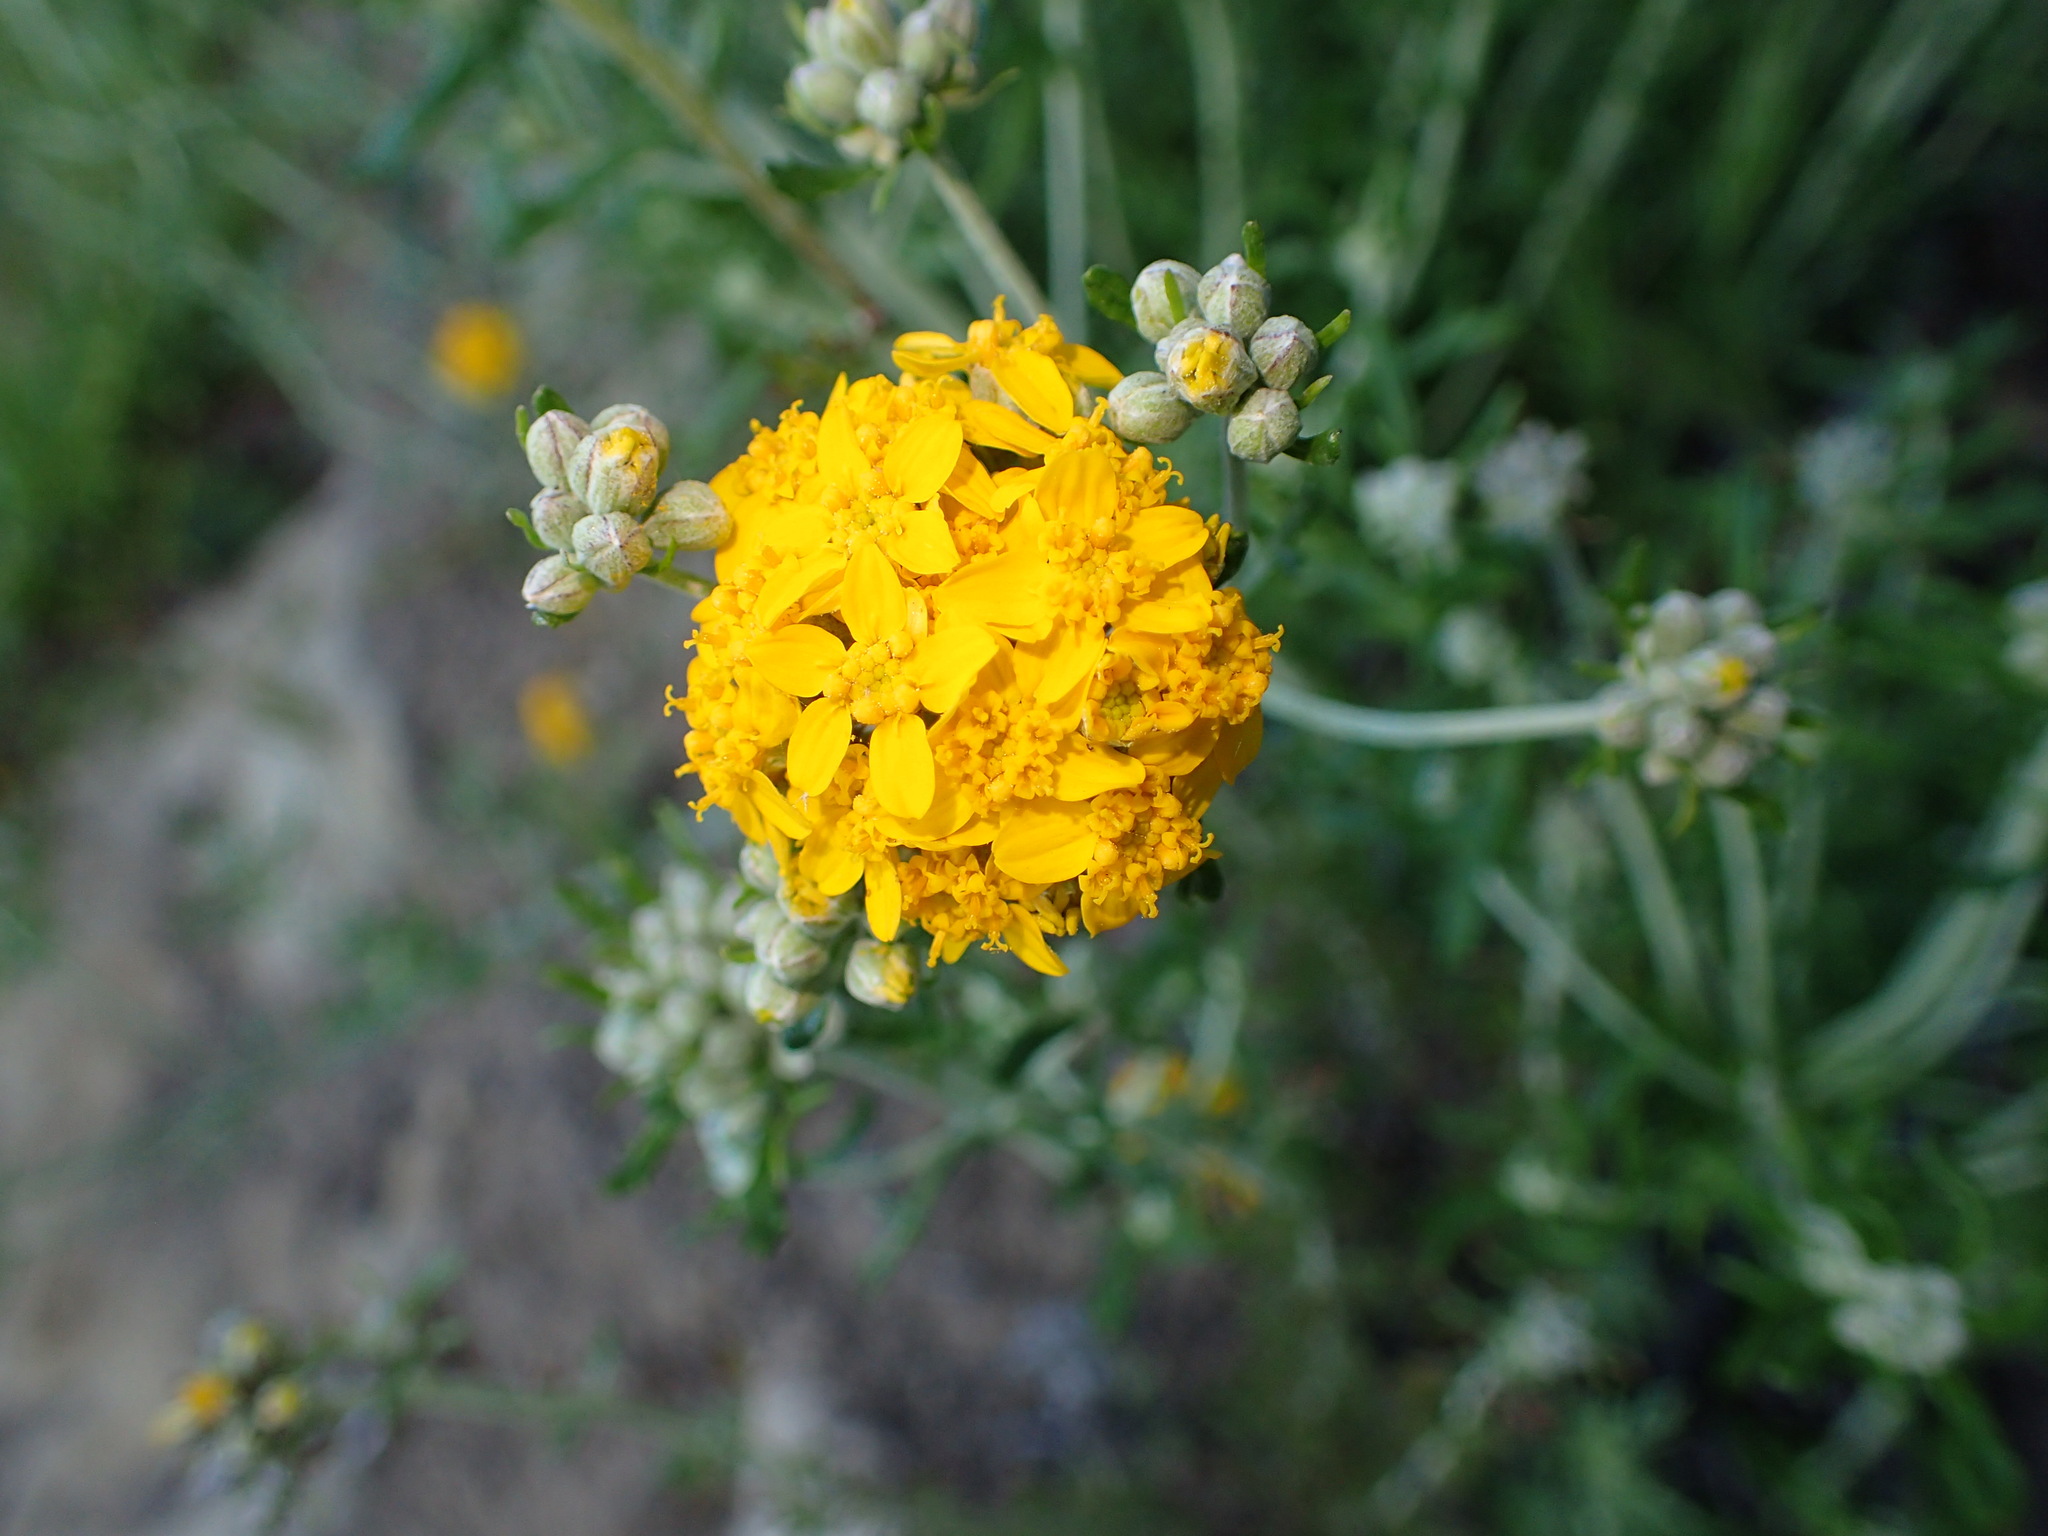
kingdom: Plantae
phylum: Tracheophyta
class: Magnoliopsida
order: Asterales
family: Asteraceae
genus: Eriophyllum
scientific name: Eriophyllum confertiflorum
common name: Golden-yarrow
